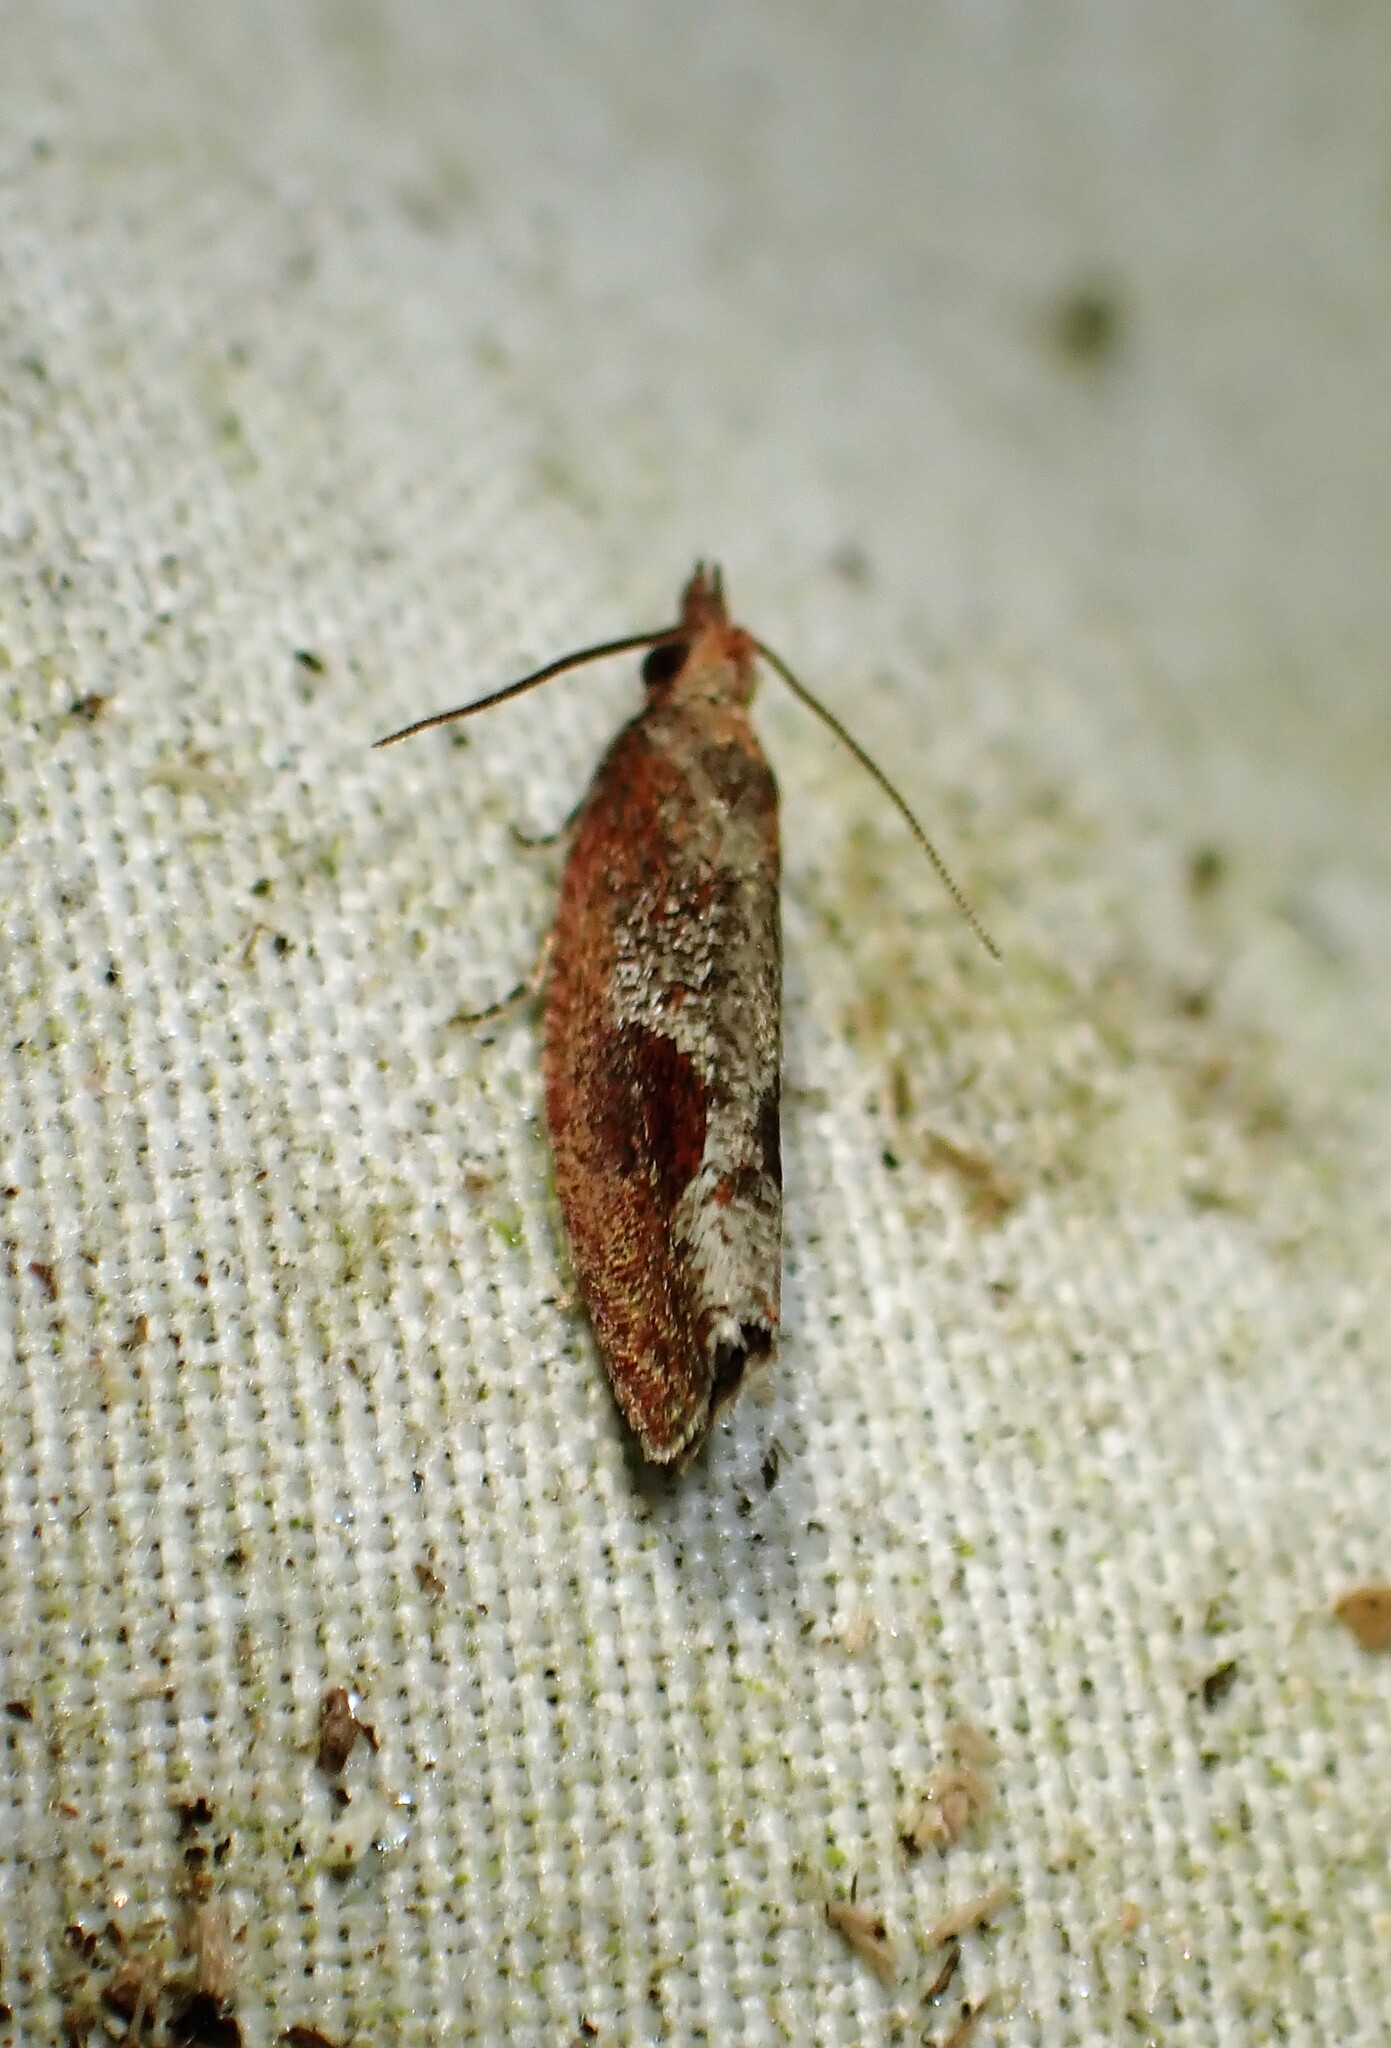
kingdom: Animalia
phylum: Arthropoda
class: Insecta
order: Lepidoptera
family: Tortricidae
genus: Epinotia
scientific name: Epinotia septemberana
